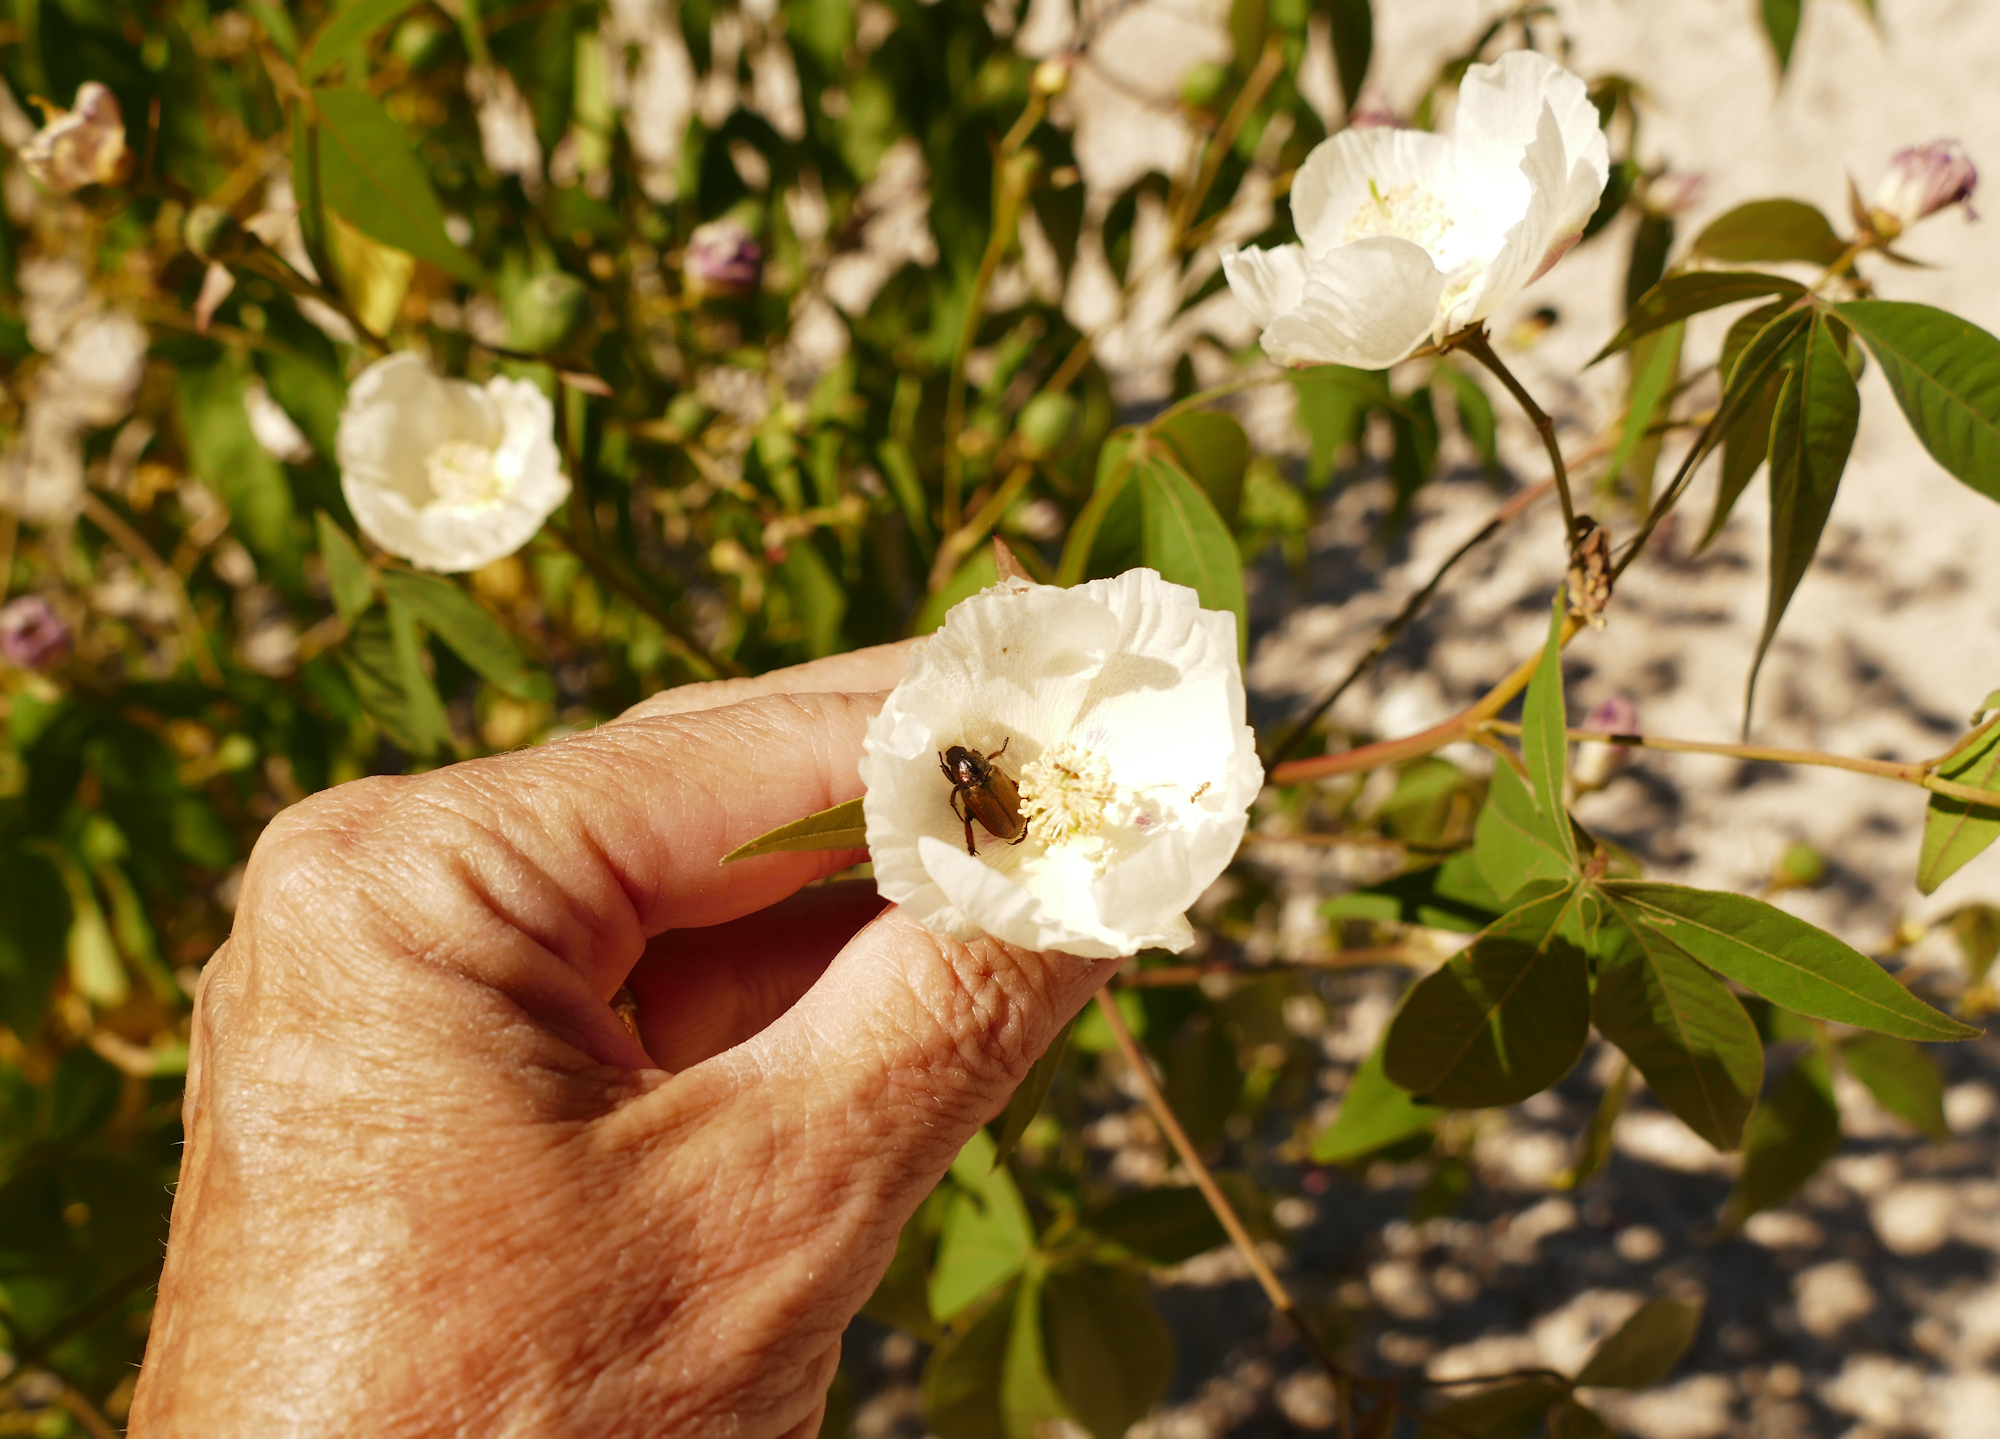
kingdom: Plantae
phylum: Tracheophyta
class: Magnoliopsida
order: Malvales
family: Malvaceae
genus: Gossypium
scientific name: Gossypium thurberi
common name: Desert cotton
